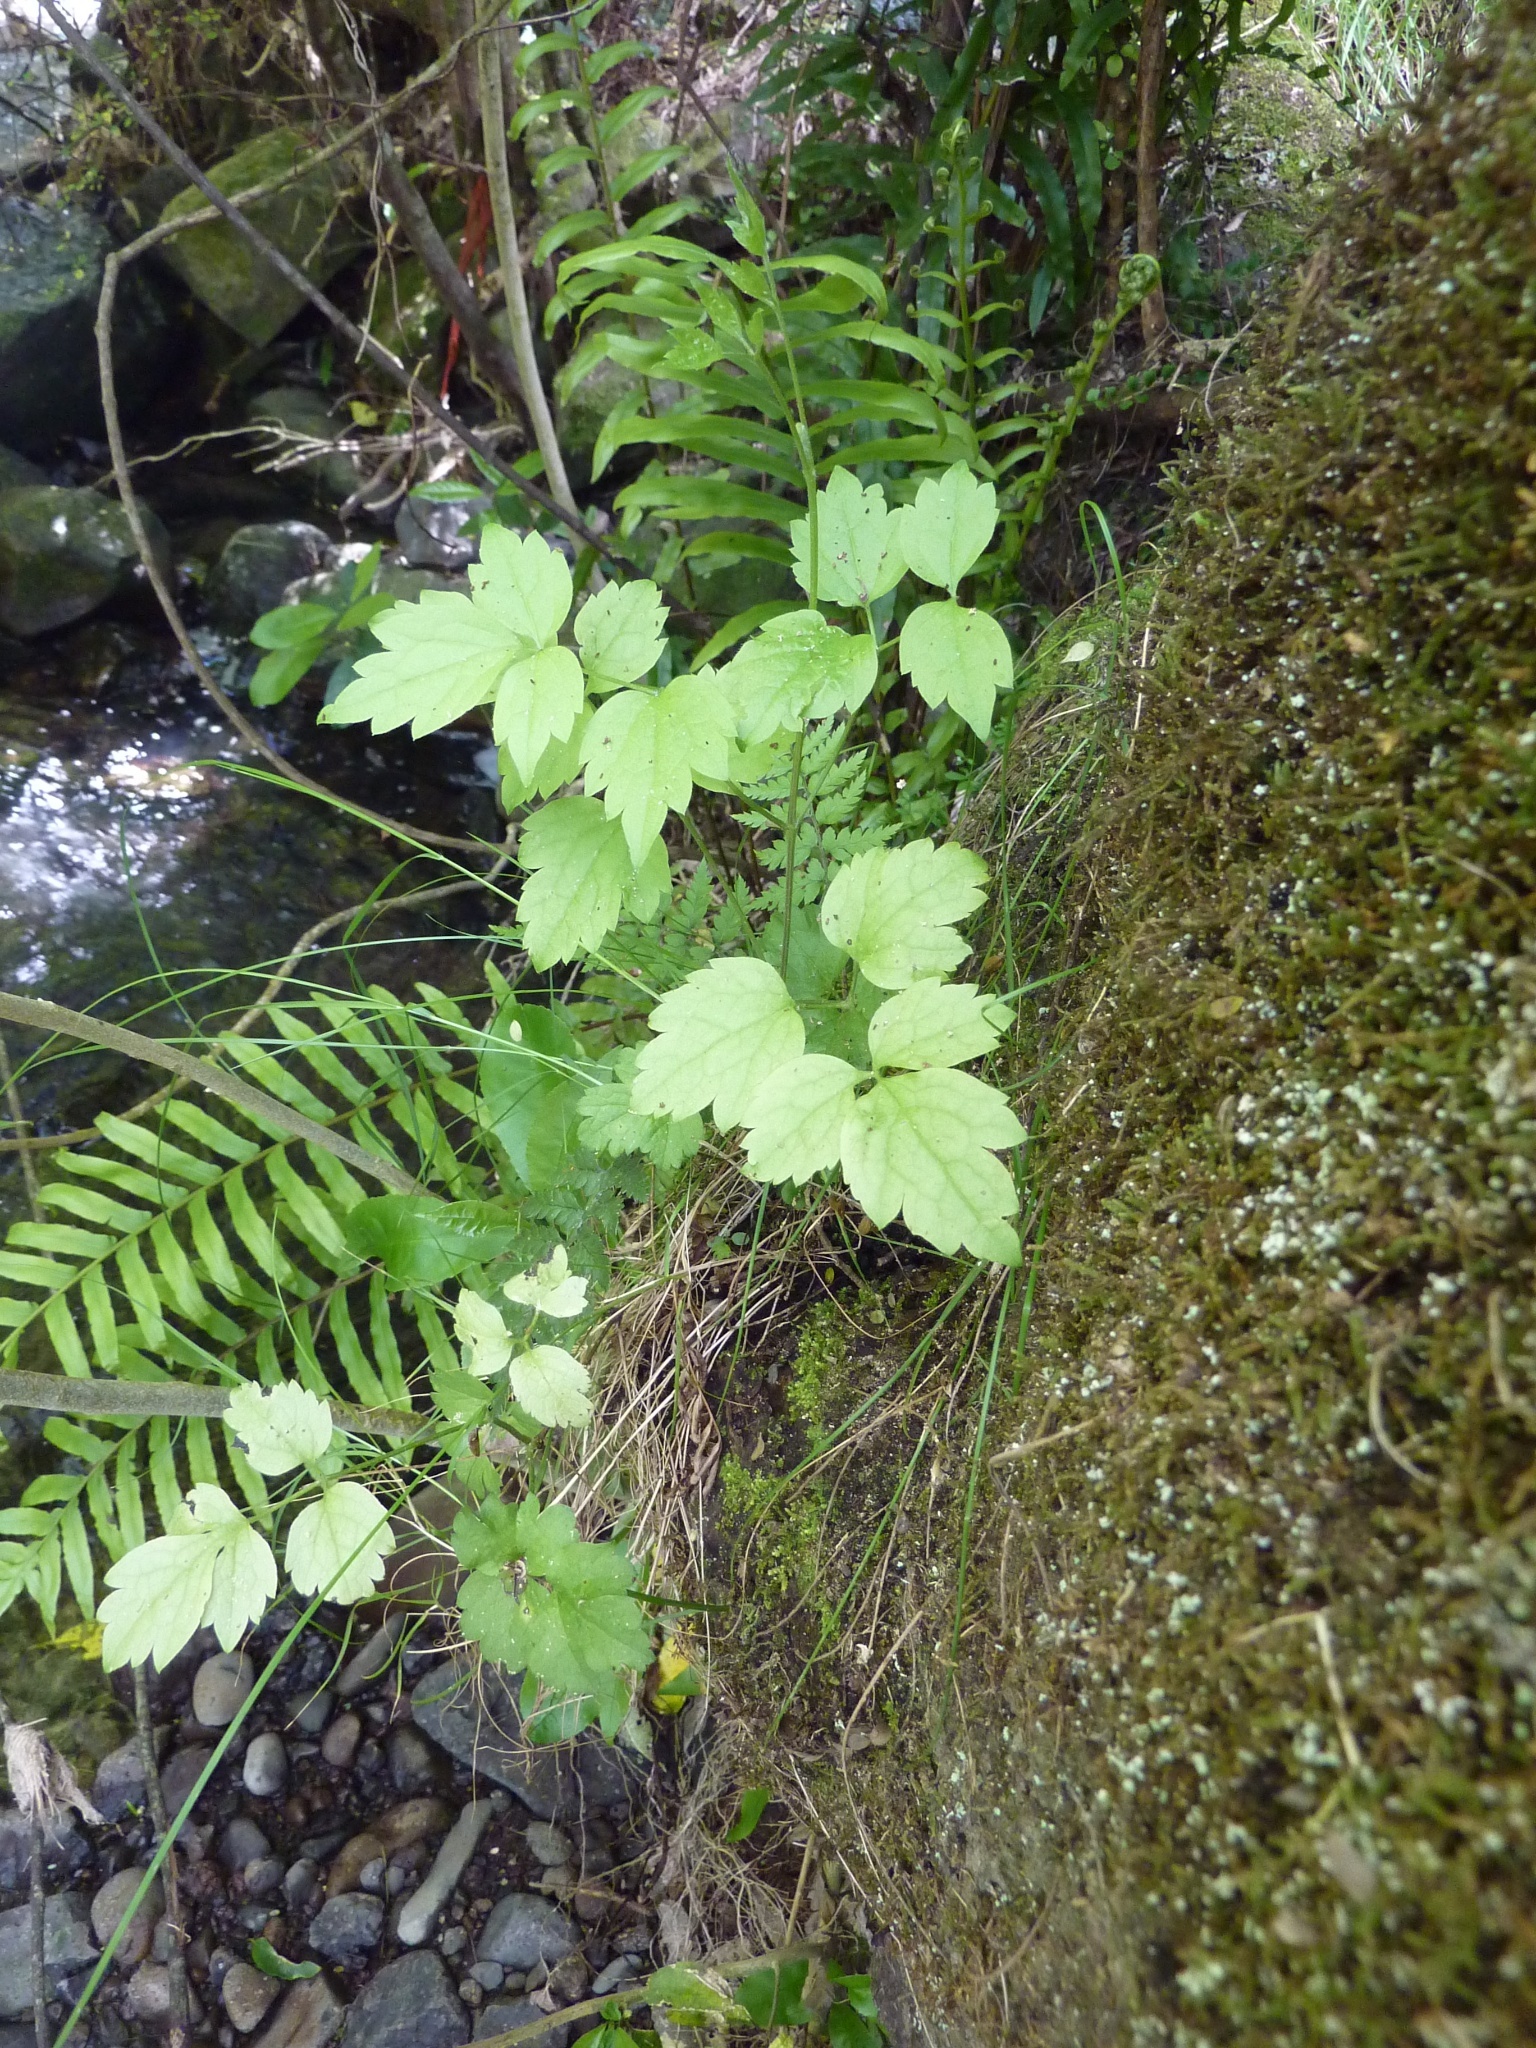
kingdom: Plantae
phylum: Tracheophyta
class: Magnoliopsida
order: Ranunculales
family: Ranunculaceae
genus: Clematis
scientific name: Clematis vitalba
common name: Evergreen clematis
